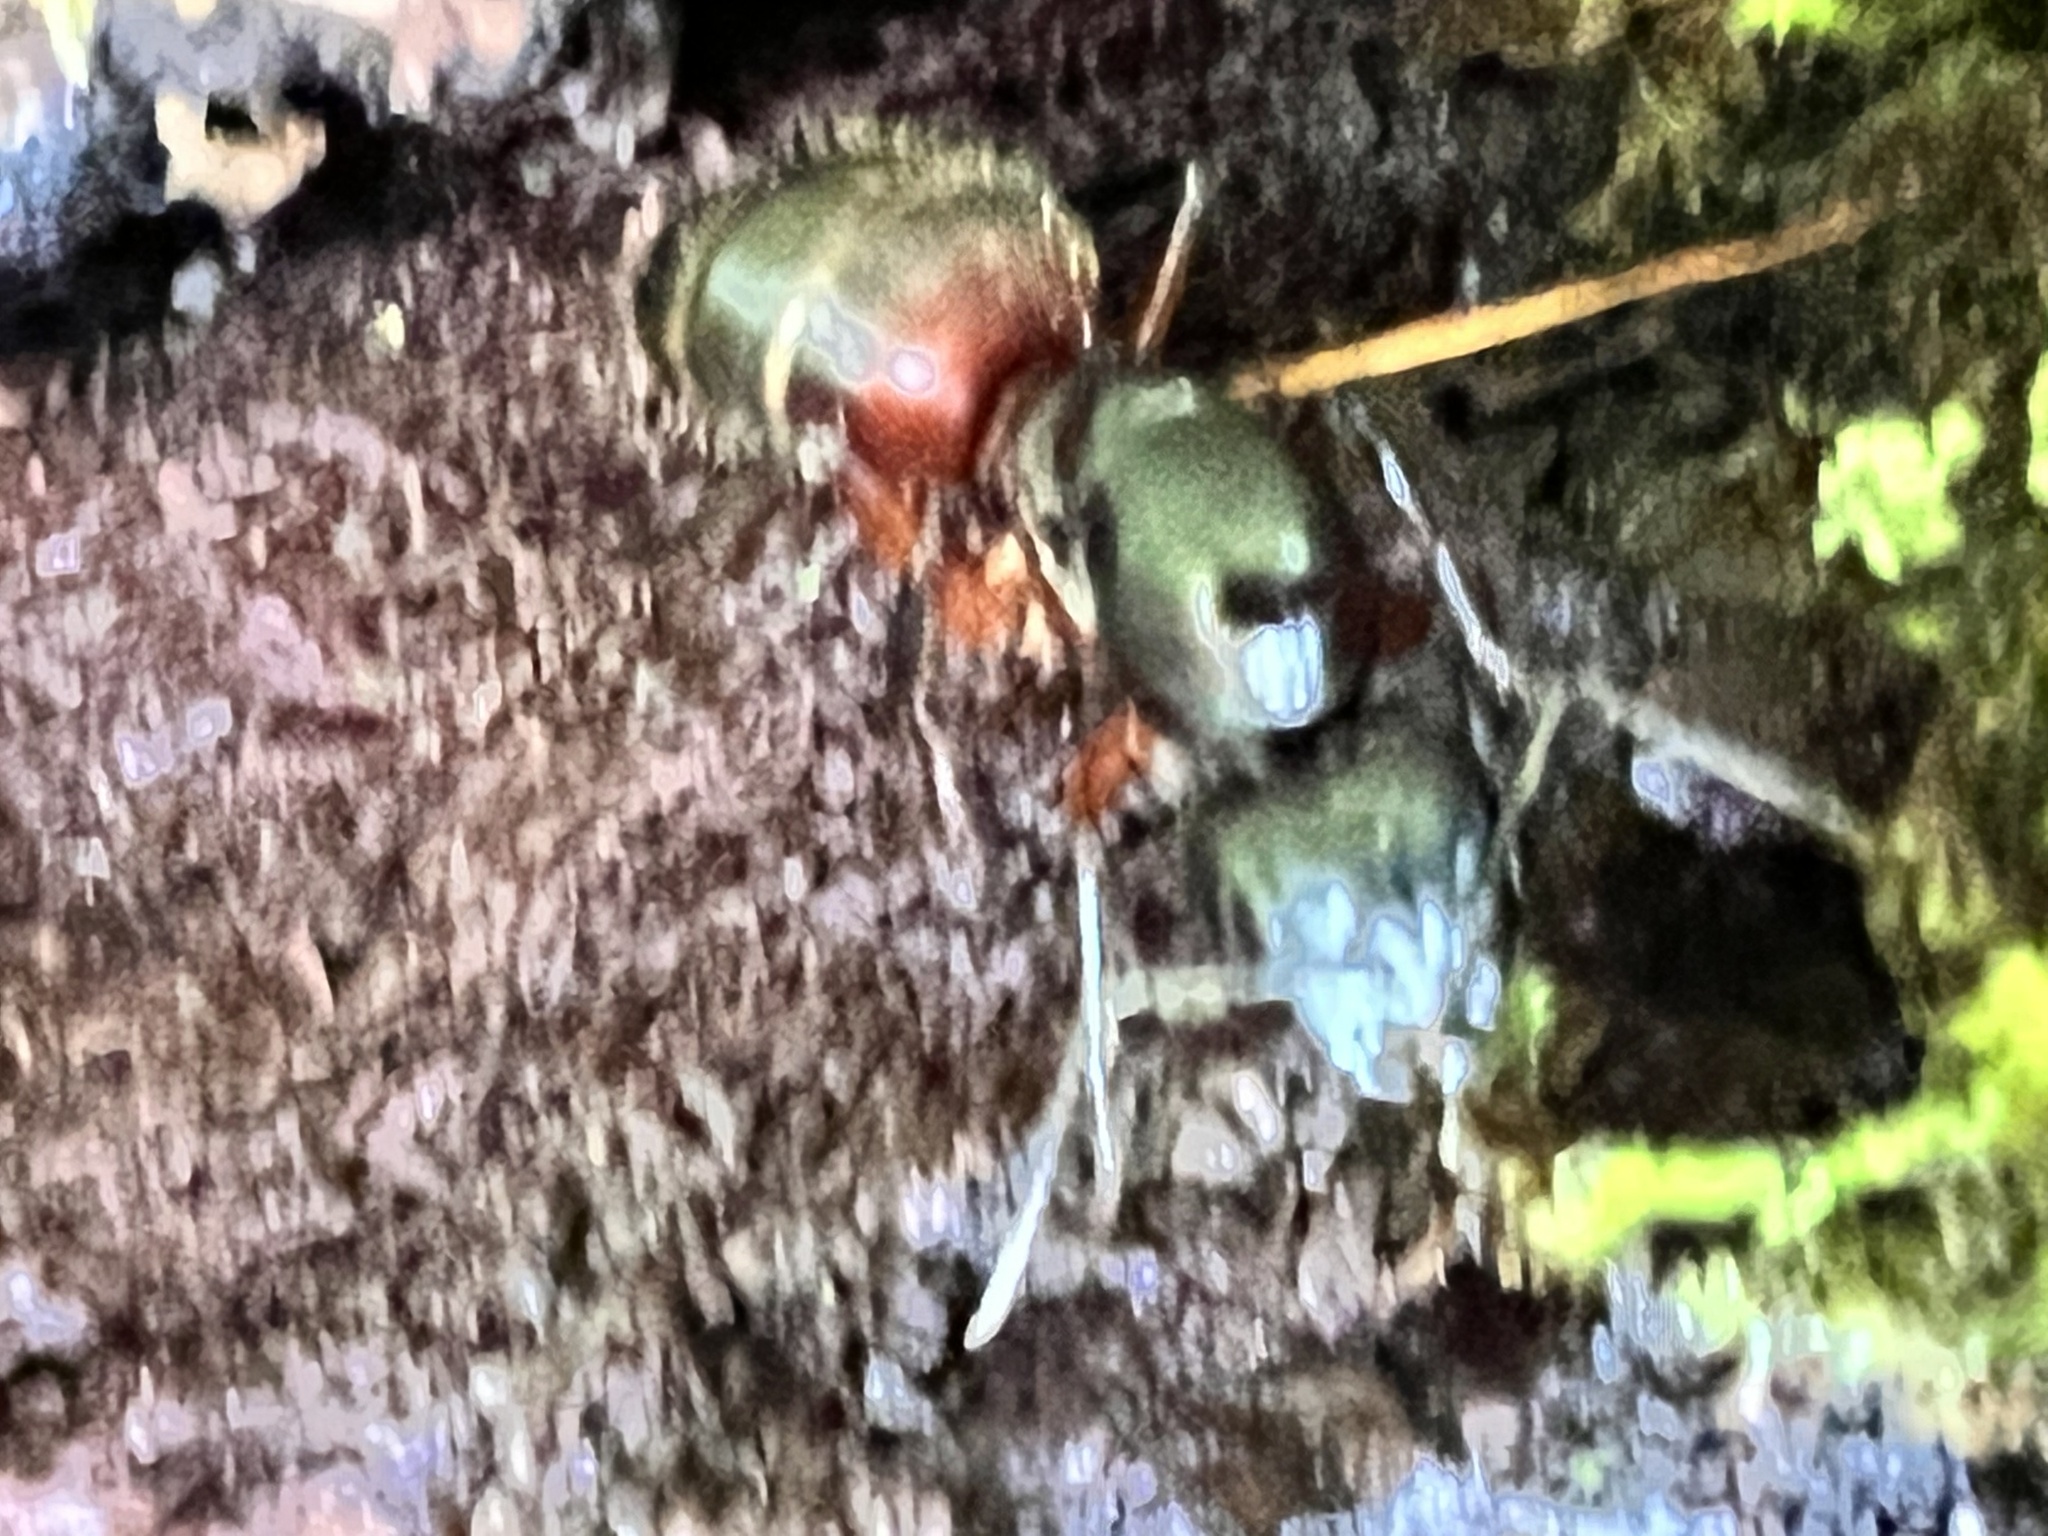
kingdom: Animalia
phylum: Arthropoda
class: Insecta
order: Hymenoptera
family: Formicidae
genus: Camponotus
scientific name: Camponotus chromaiodes
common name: Red carpenter ant
